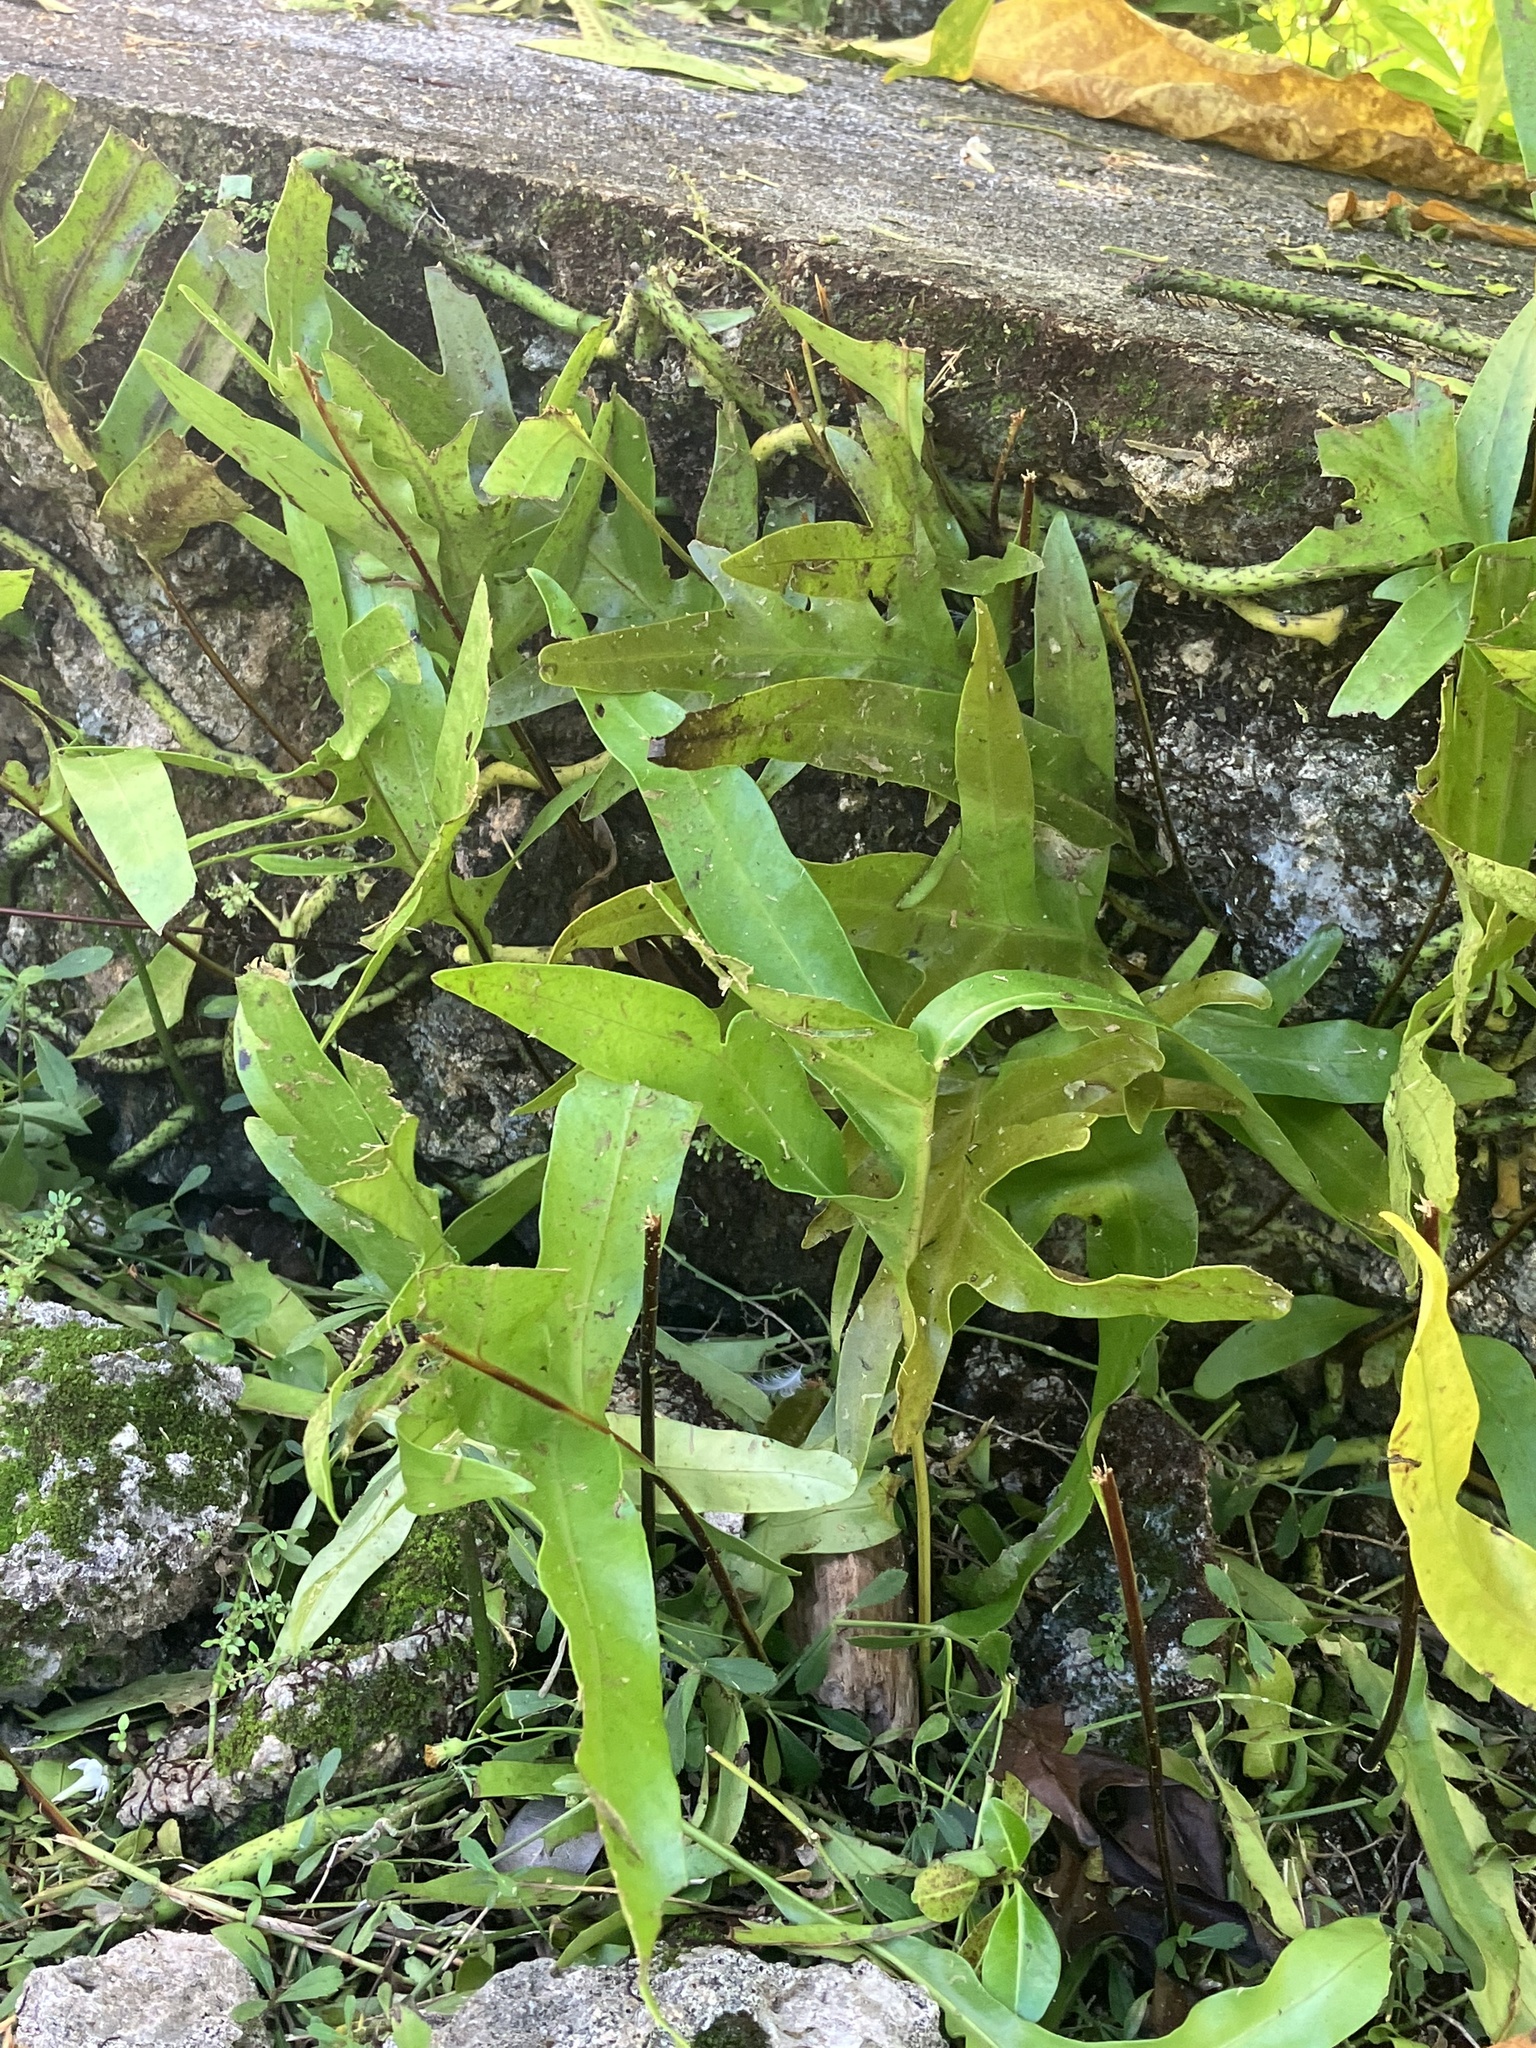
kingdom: Plantae
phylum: Tracheophyta
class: Polypodiopsida
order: Polypodiales
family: Polypodiaceae
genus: Microsorum
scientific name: Microsorum scolopendria
